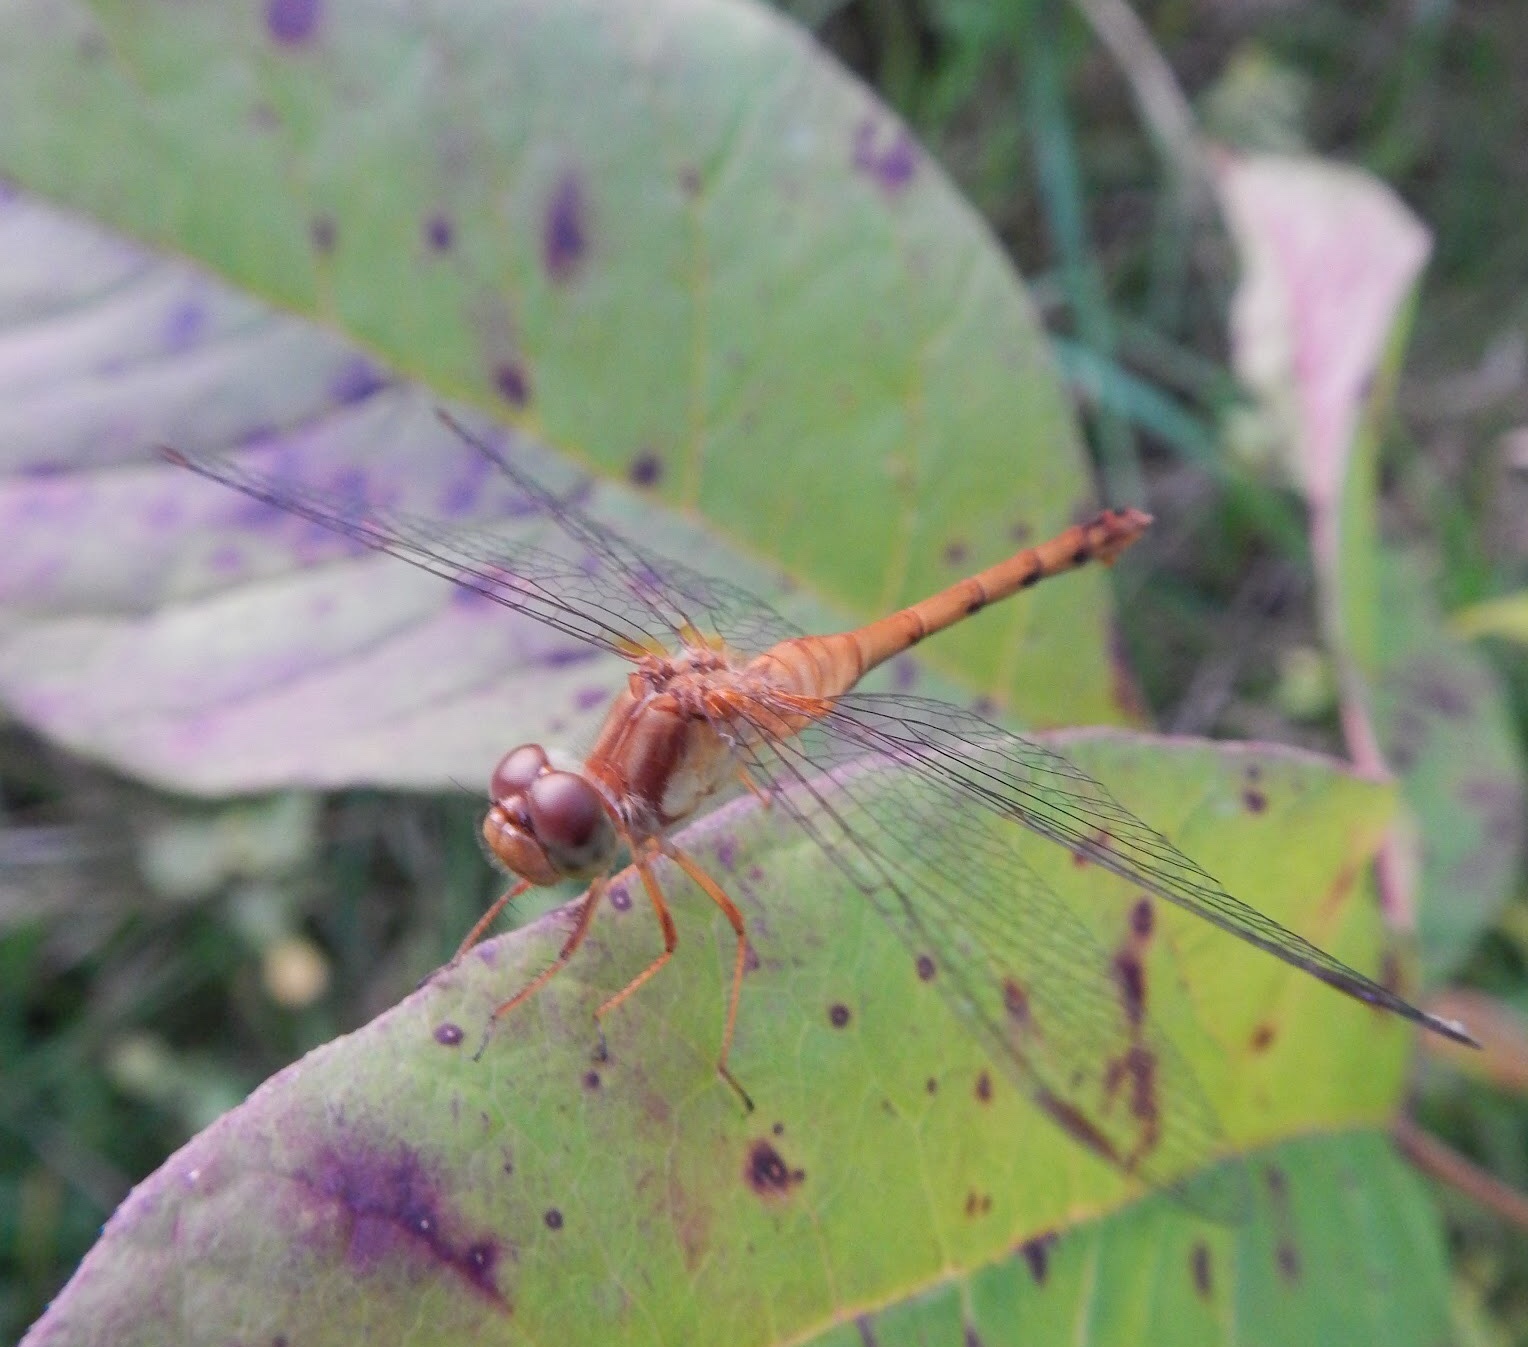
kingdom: Animalia
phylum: Arthropoda
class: Insecta
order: Odonata
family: Libellulidae
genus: Sympetrum
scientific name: Sympetrum vicinum
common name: Autumn meadowhawk
